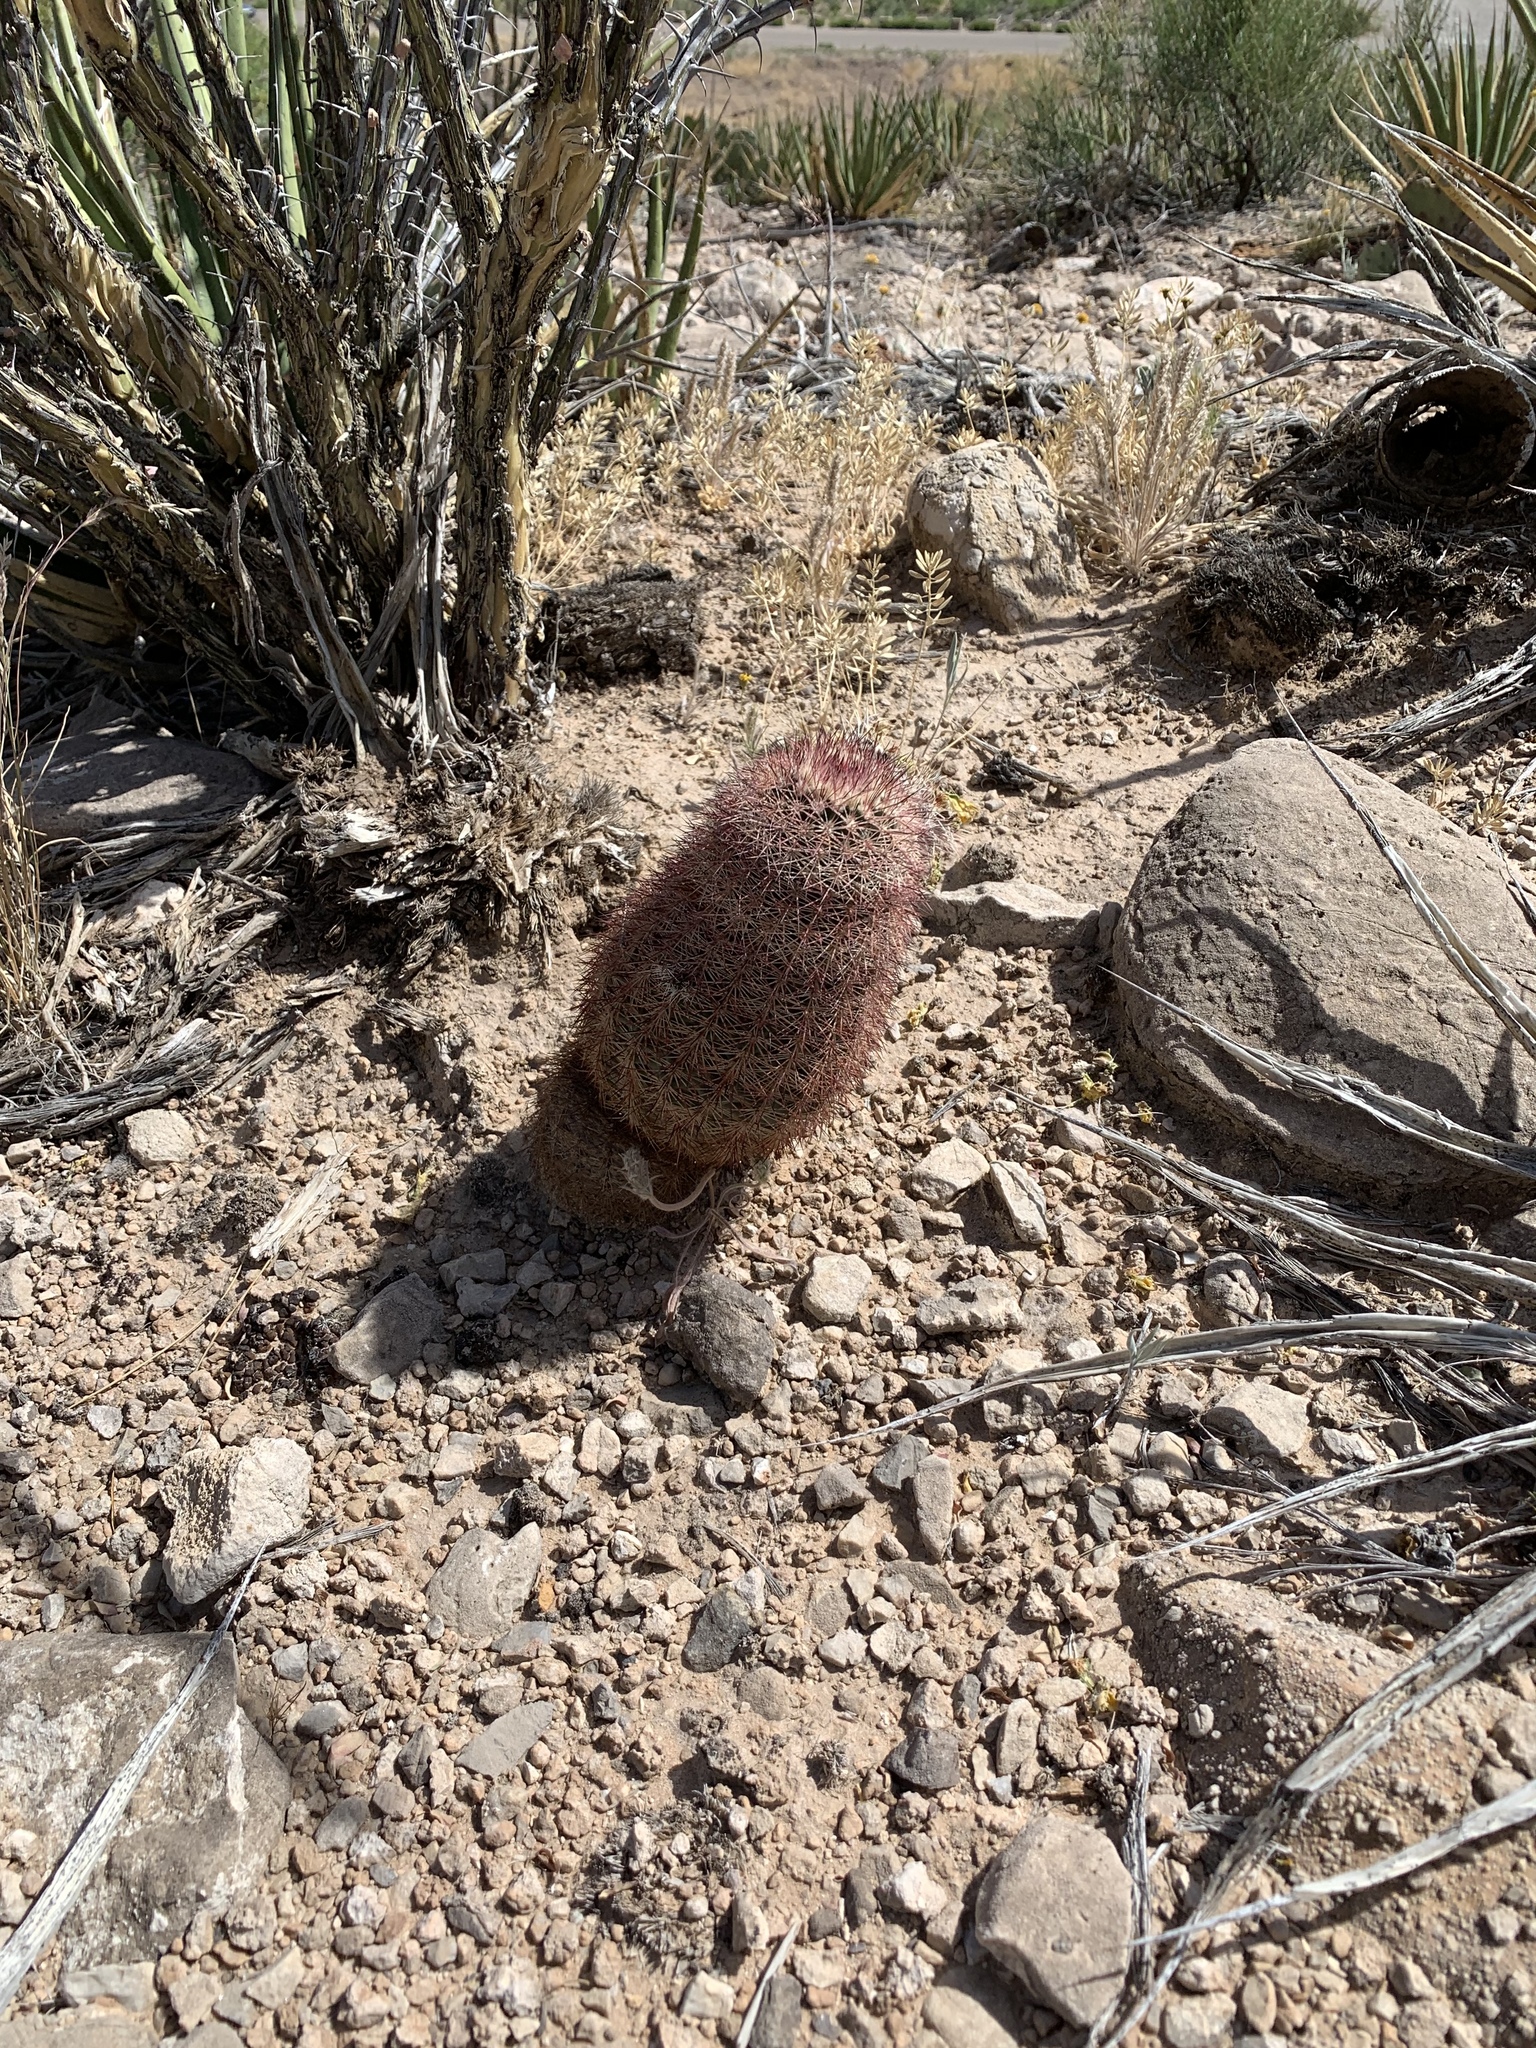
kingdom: Plantae
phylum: Tracheophyta
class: Magnoliopsida
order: Caryophyllales
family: Cactaceae
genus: Echinocereus
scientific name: Echinocereus dasyacanthus
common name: Spiny hedgehog cactus
